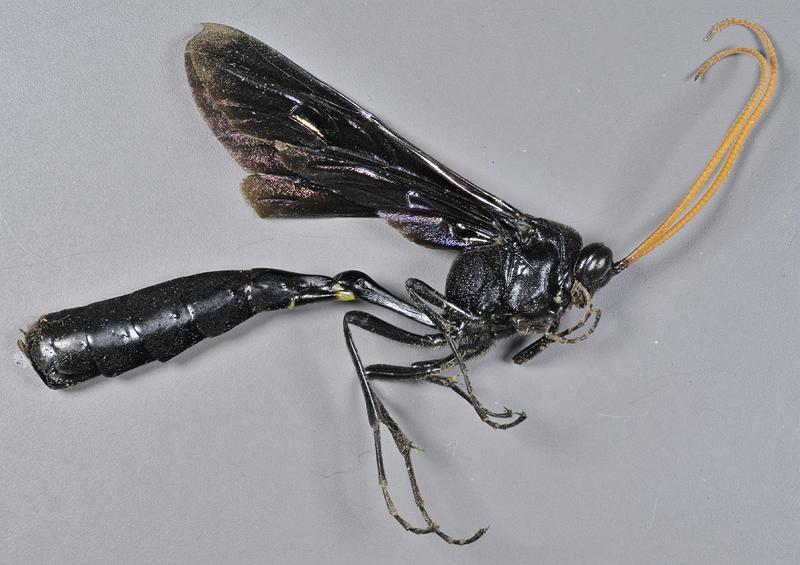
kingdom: Animalia
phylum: Arthropoda
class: Insecta
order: Hymenoptera
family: Ichneumonidae
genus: Thyreodon
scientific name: Thyreodon atricolor
